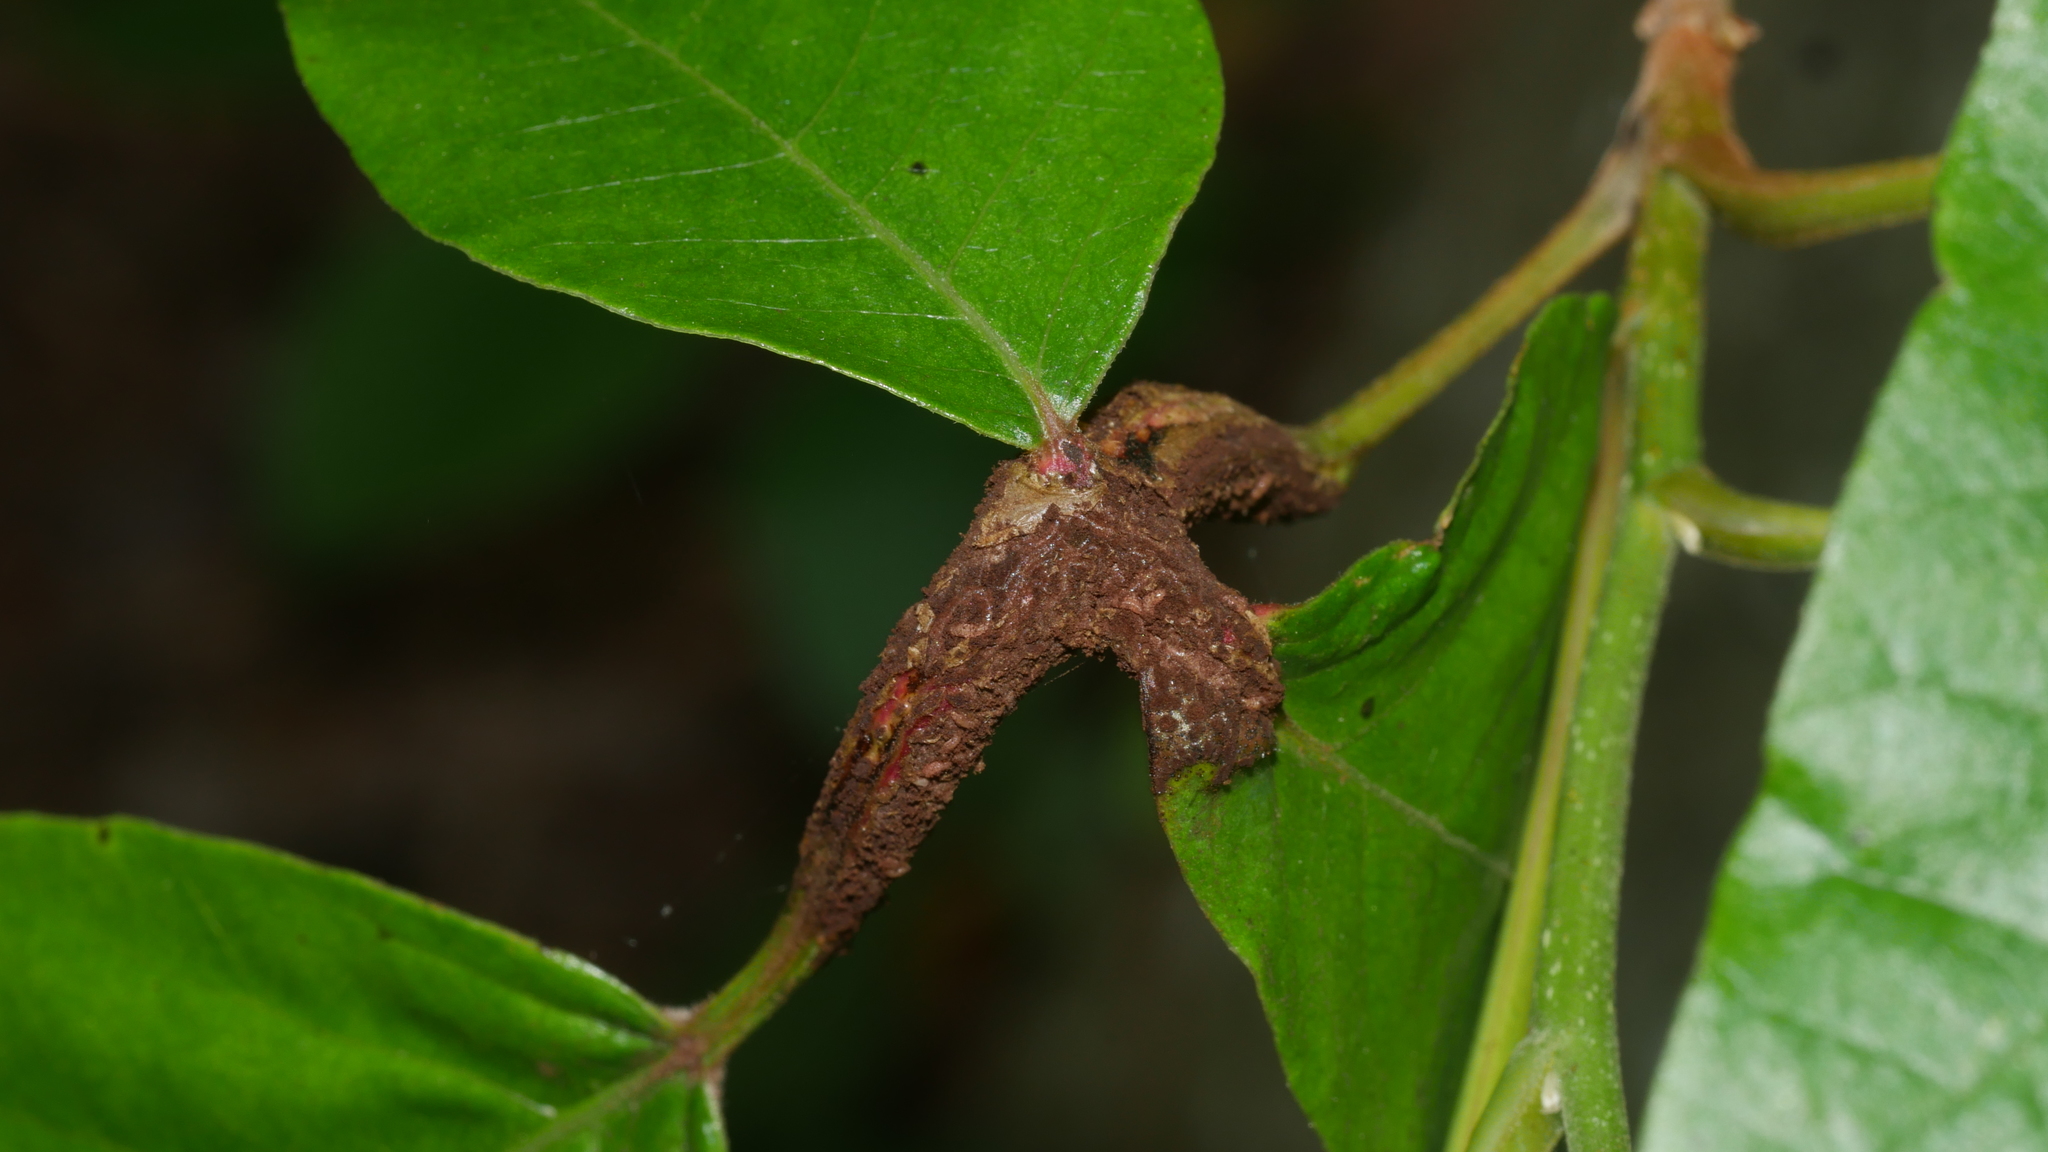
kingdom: Fungi
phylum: Basidiomycota
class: Pucciniomycetes
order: Pucciniales
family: Pileolariaceae
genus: Pileolaria
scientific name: Pileolaria brevipes
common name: Poison ivy rust
